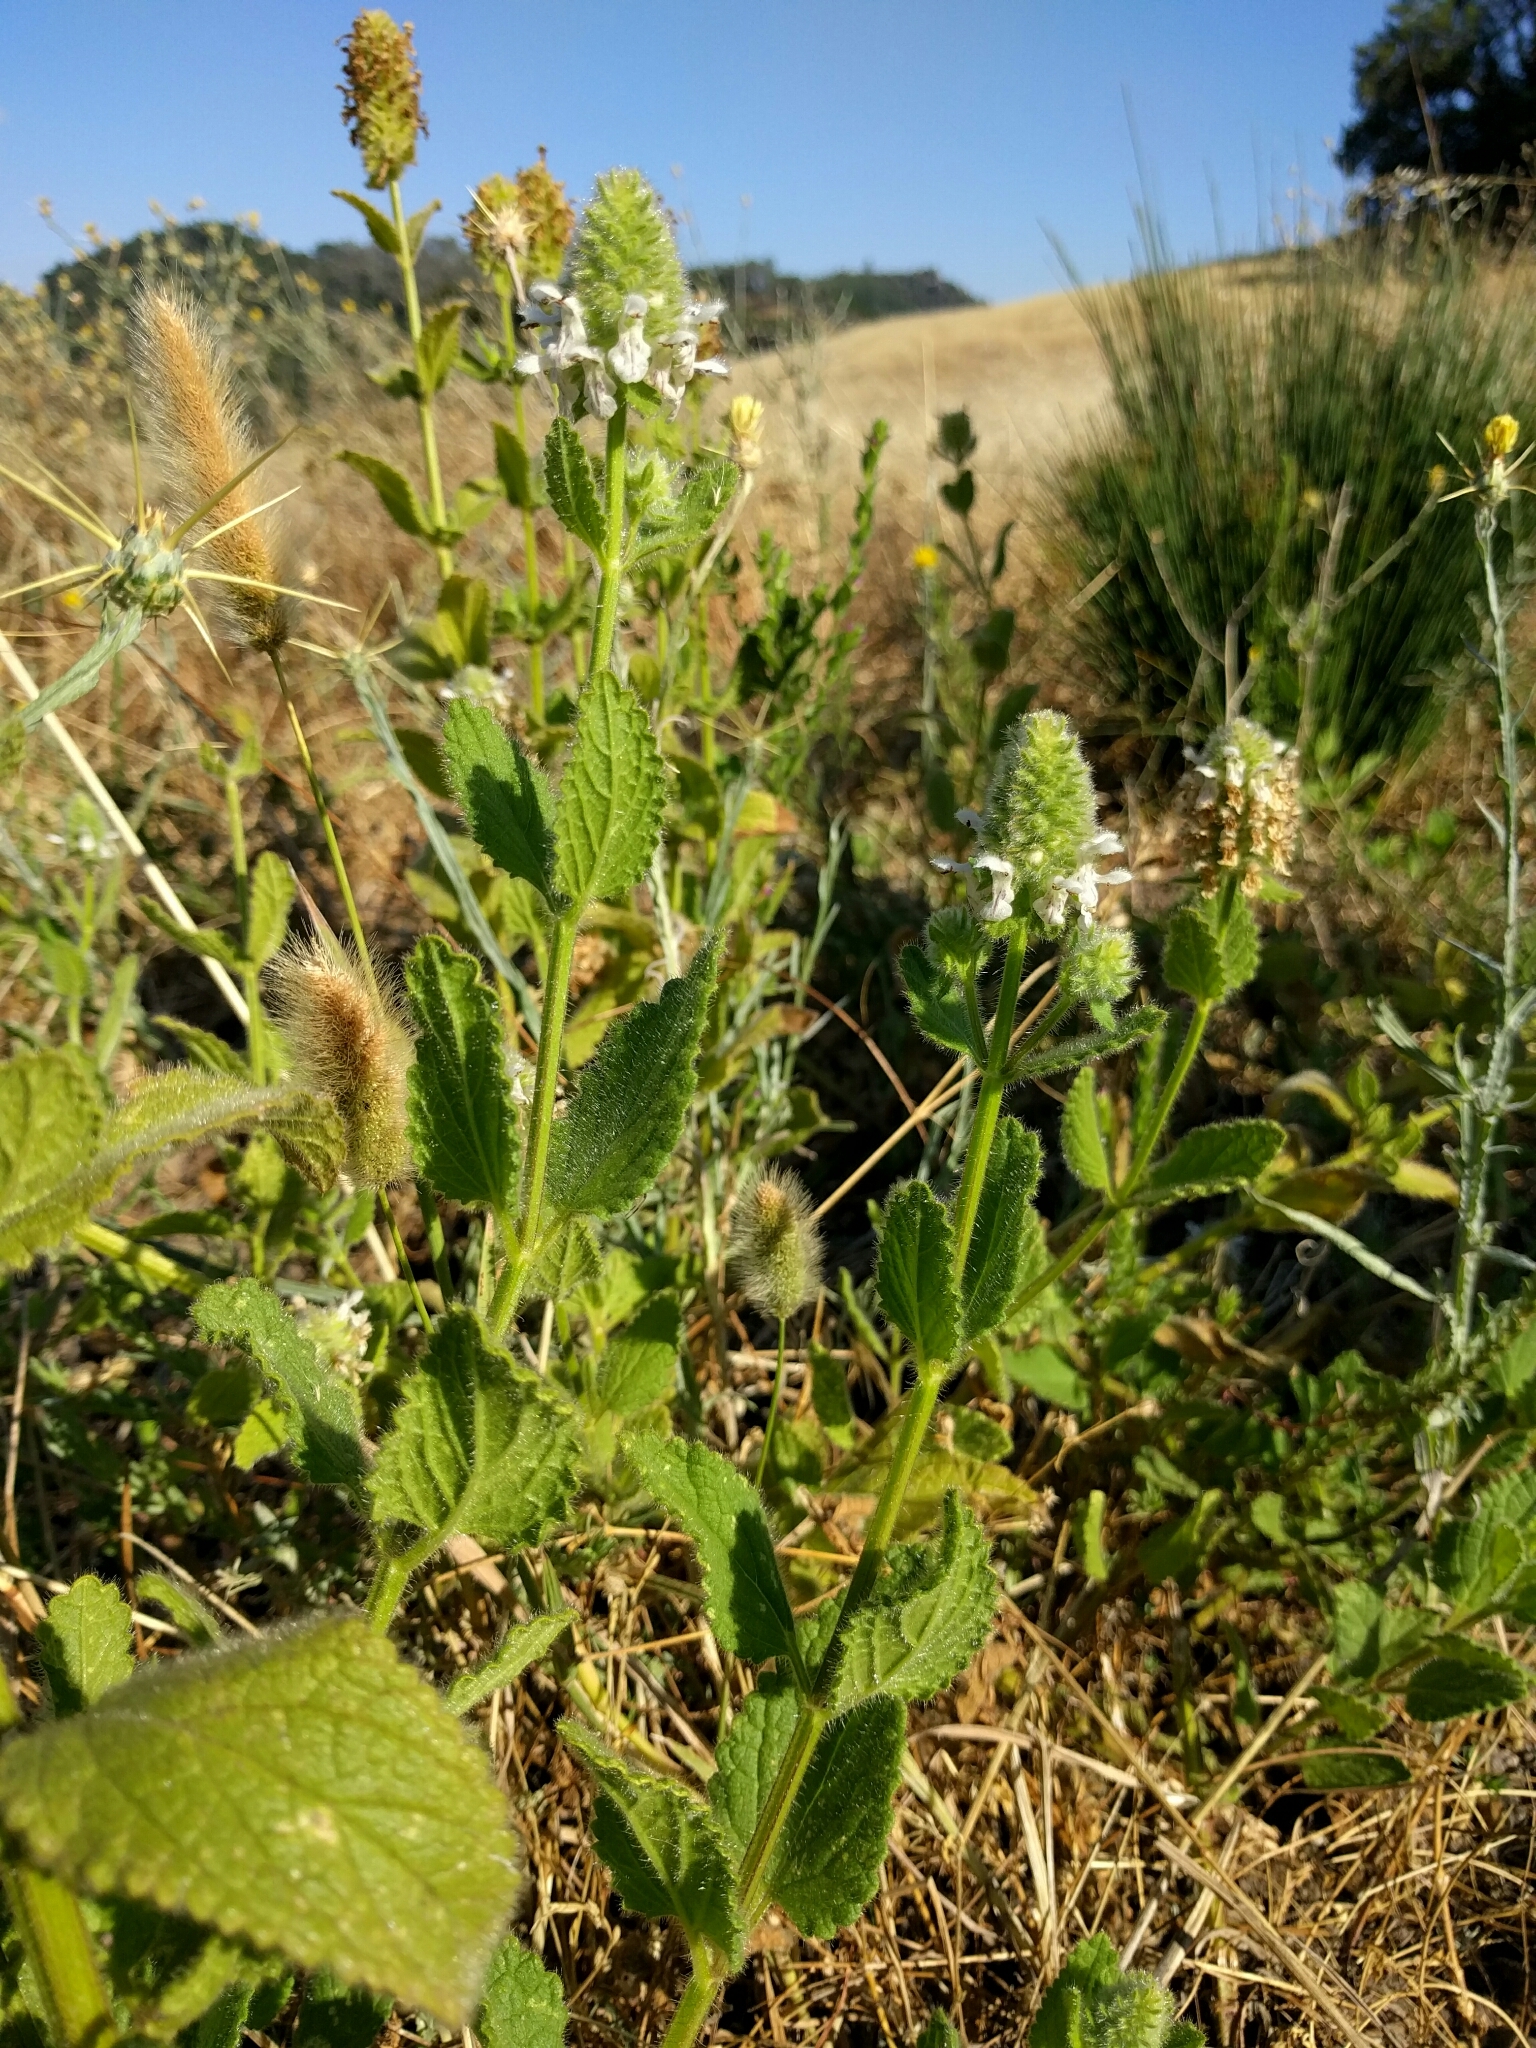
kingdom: Plantae
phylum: Tracheophyta
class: Magnoliopsida
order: Lamiales
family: Lamiaceae
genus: Stachys
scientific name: Stachys pycnantha
